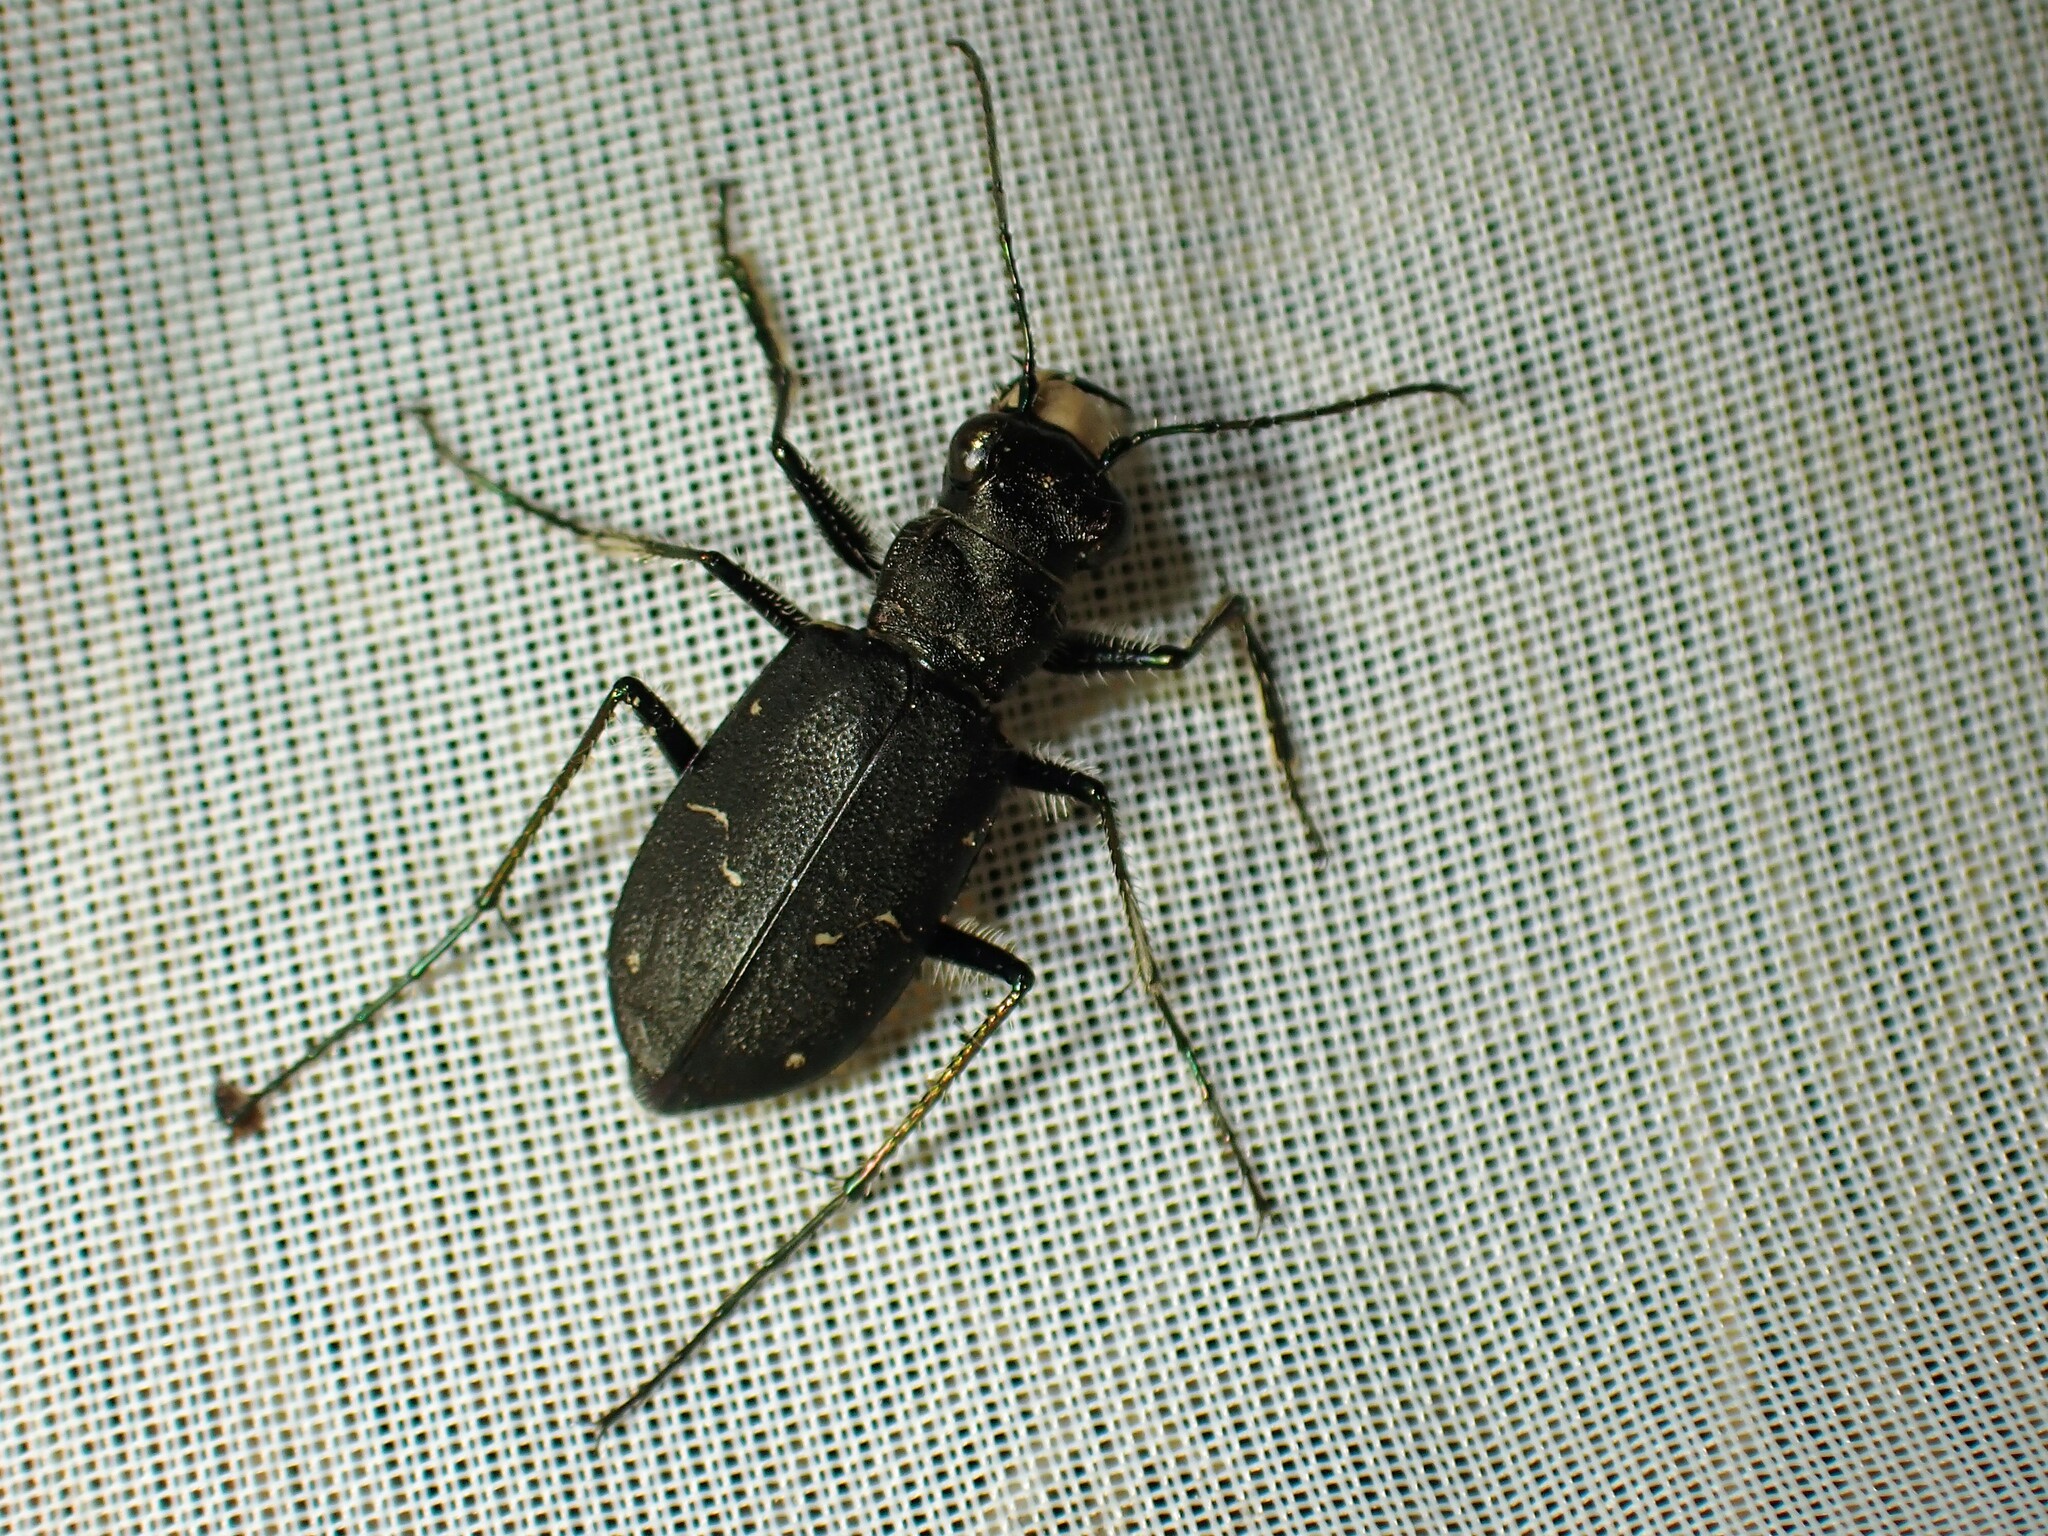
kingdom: Animalia
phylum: Arthropoda
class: Insecta
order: Coleoptera
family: Carabidae
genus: Cicindela
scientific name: Cicindela longilabris
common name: Boreal long-lipped tiger beetle
